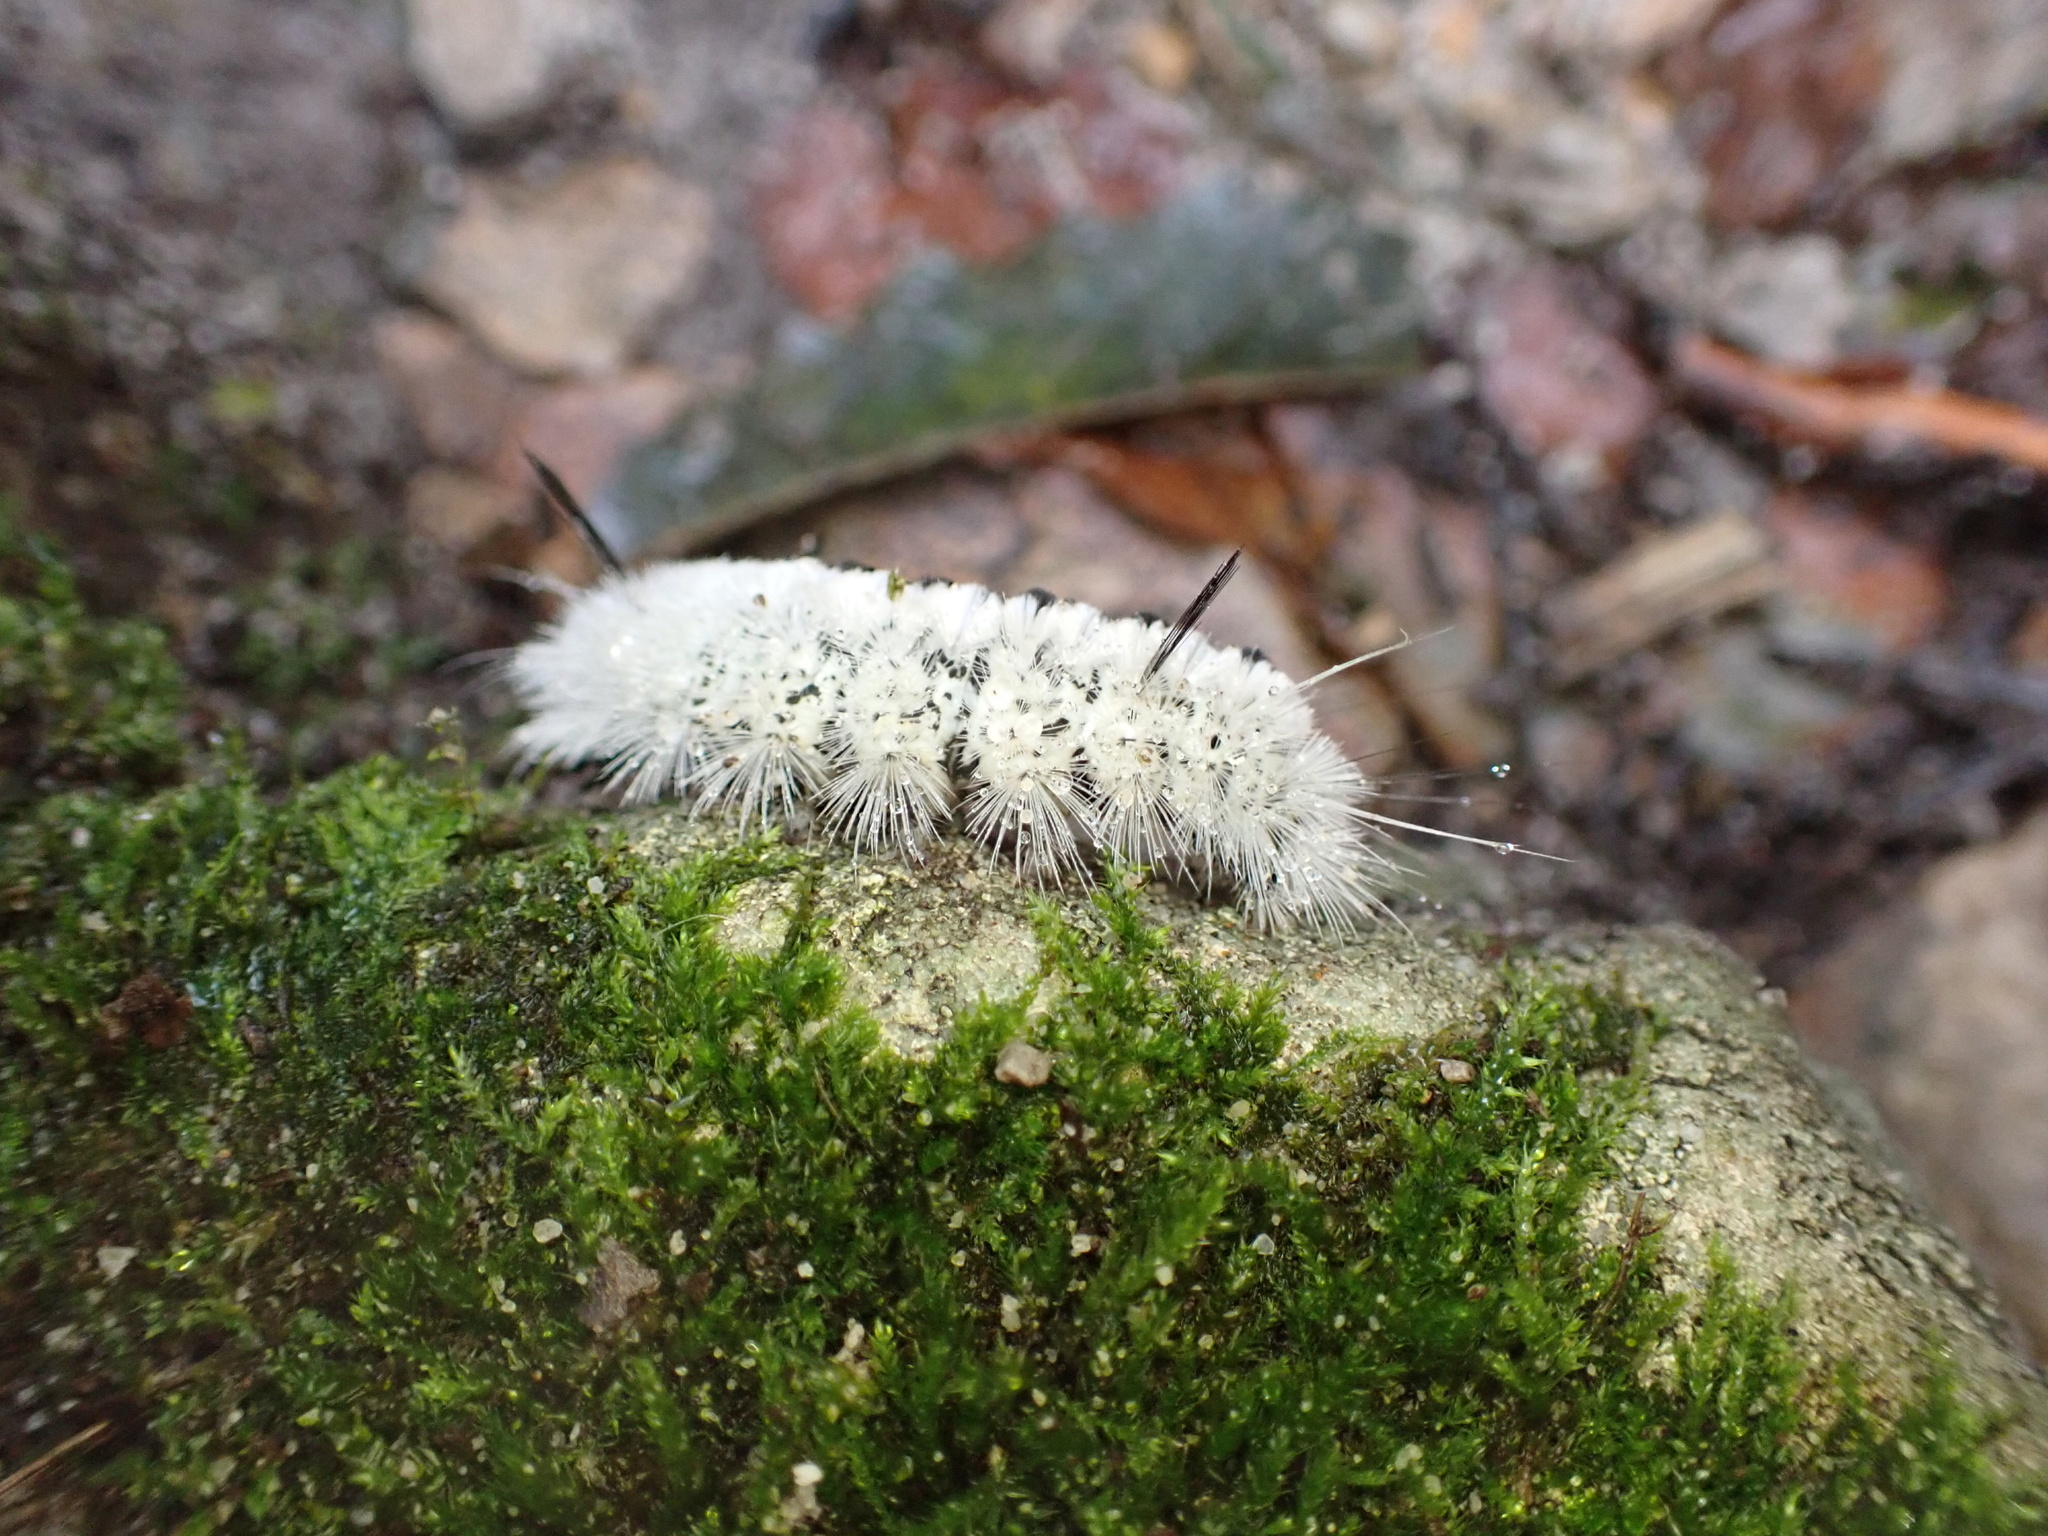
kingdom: Animalia
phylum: Arthropoda
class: Insecta
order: Lepidoptera
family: Erebidae
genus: Lophocampa
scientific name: Lophocampa caryae
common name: Hickory tussock moth
